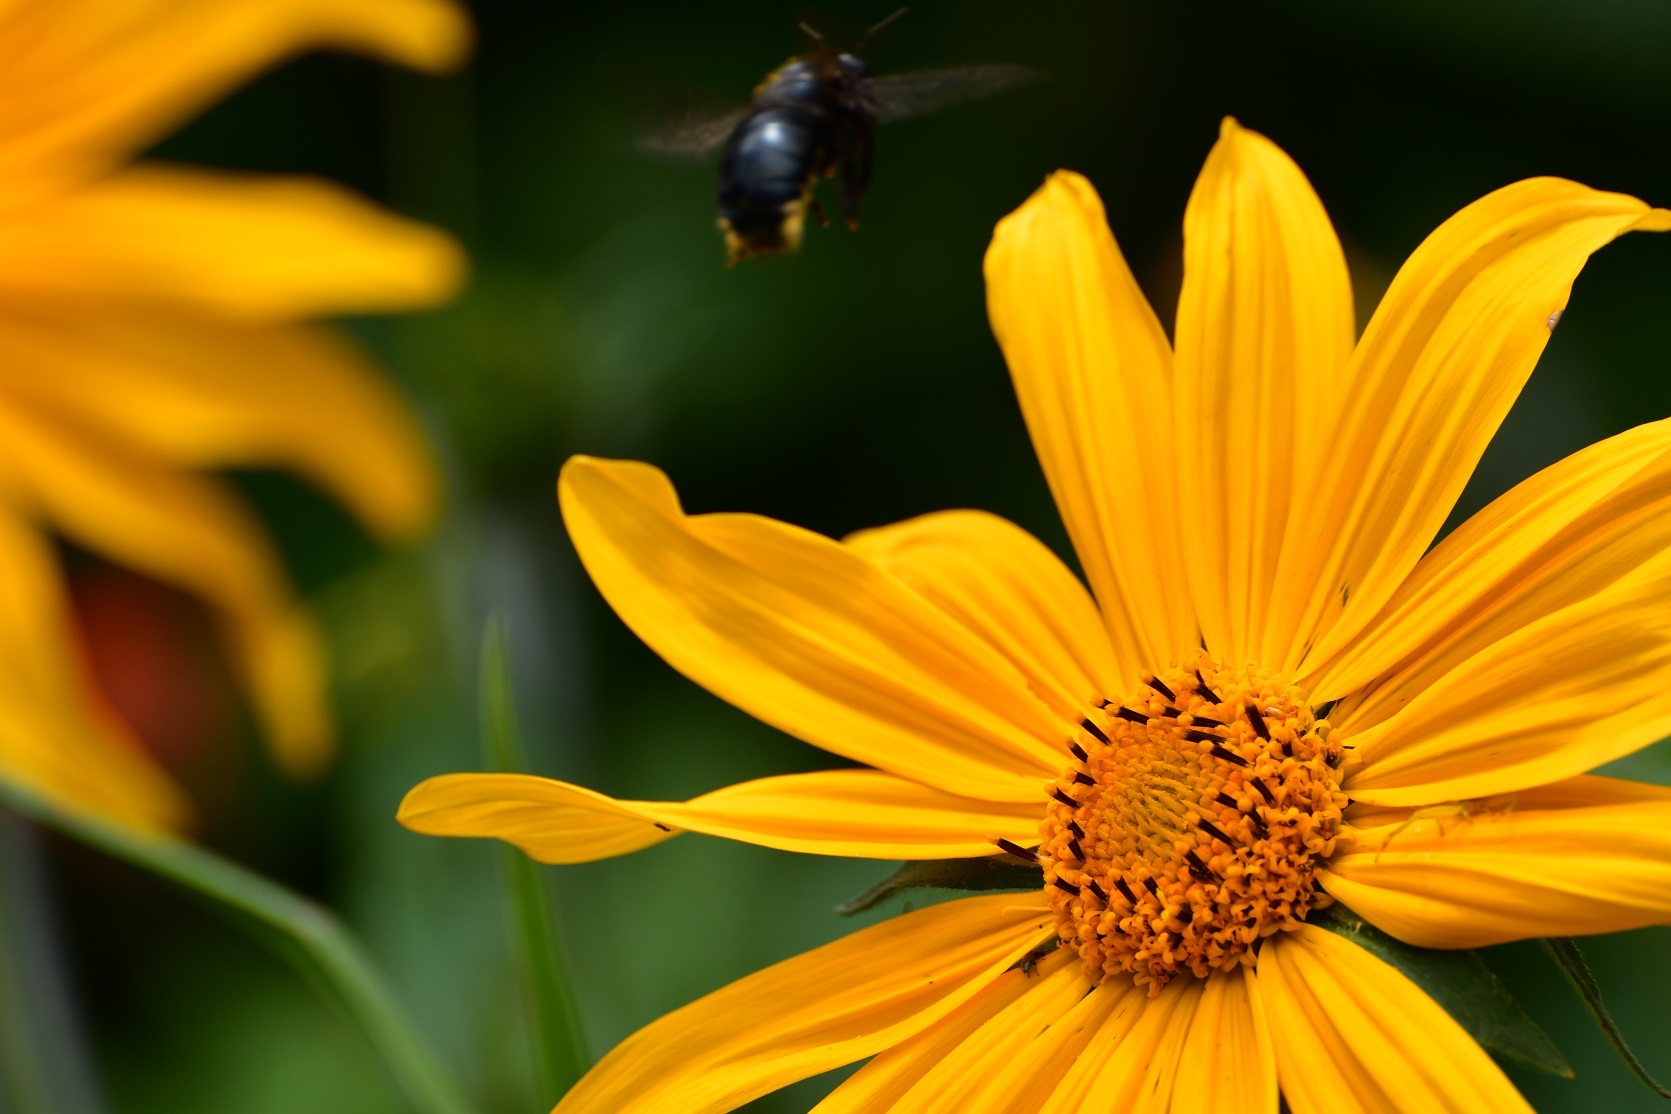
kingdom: Plantae
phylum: Tracheophyta
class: Magnoliopsida
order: Asterales
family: Asteraceae
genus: Tithonia
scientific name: Tithonia tubaeformis
